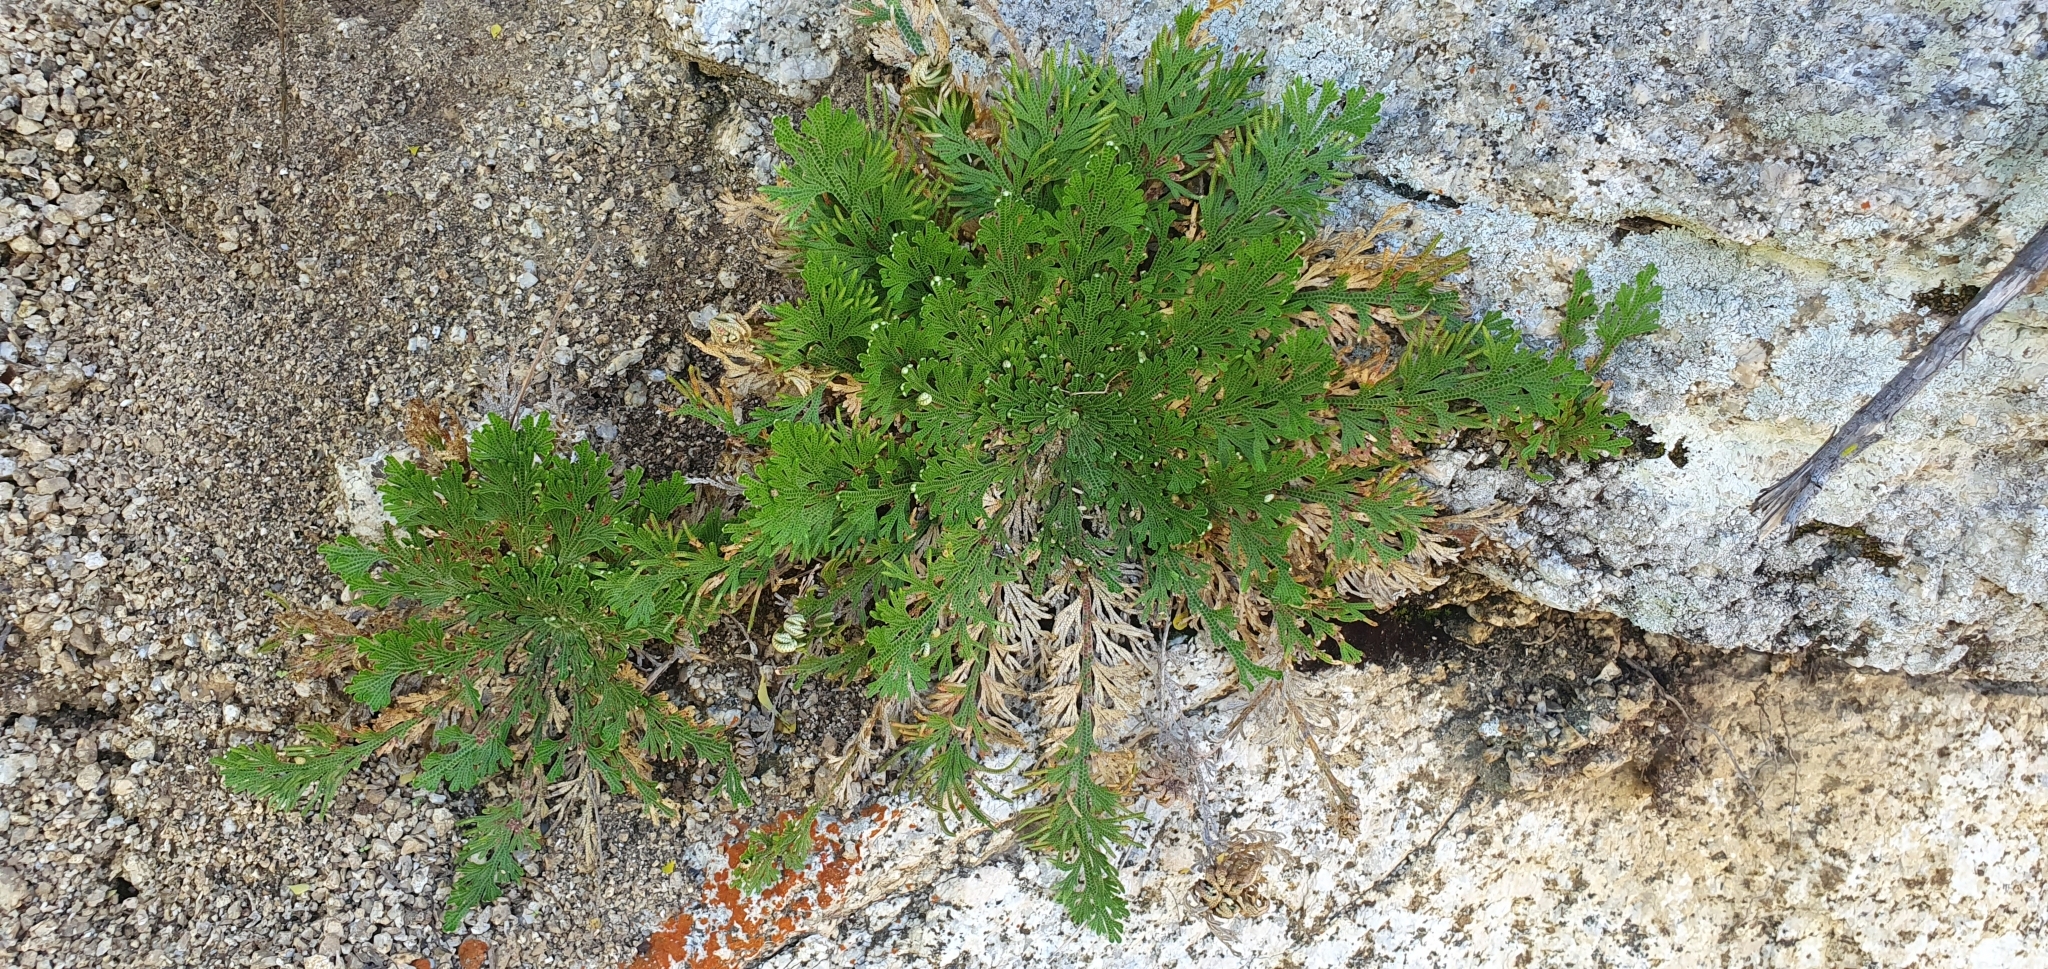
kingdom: Plantae
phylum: Tracheophyta
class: Lycopodiopsida
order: Selaginellales
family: Selaginellaceae
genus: Selaginella
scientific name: Selaginella lepidophylla
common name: Rose-of-jericho
